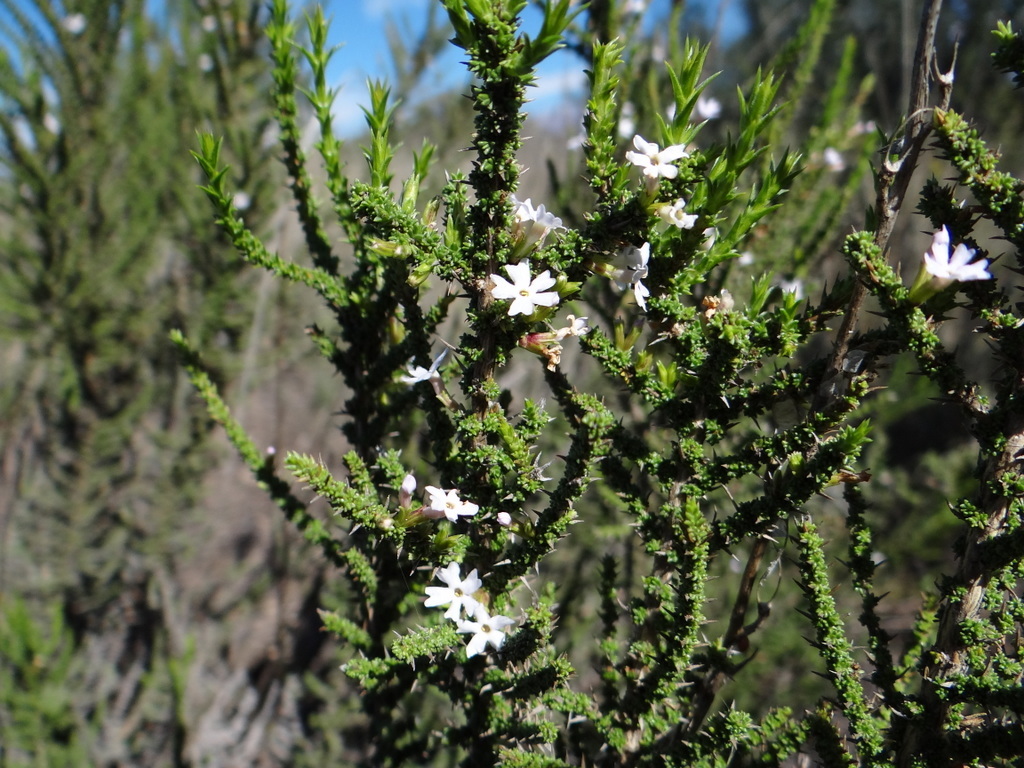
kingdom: Plantae
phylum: Tracheophyta
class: Magnoliopsida
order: Lamiales
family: Verbenaceae
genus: Junellia
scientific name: Junellia seriphioides
